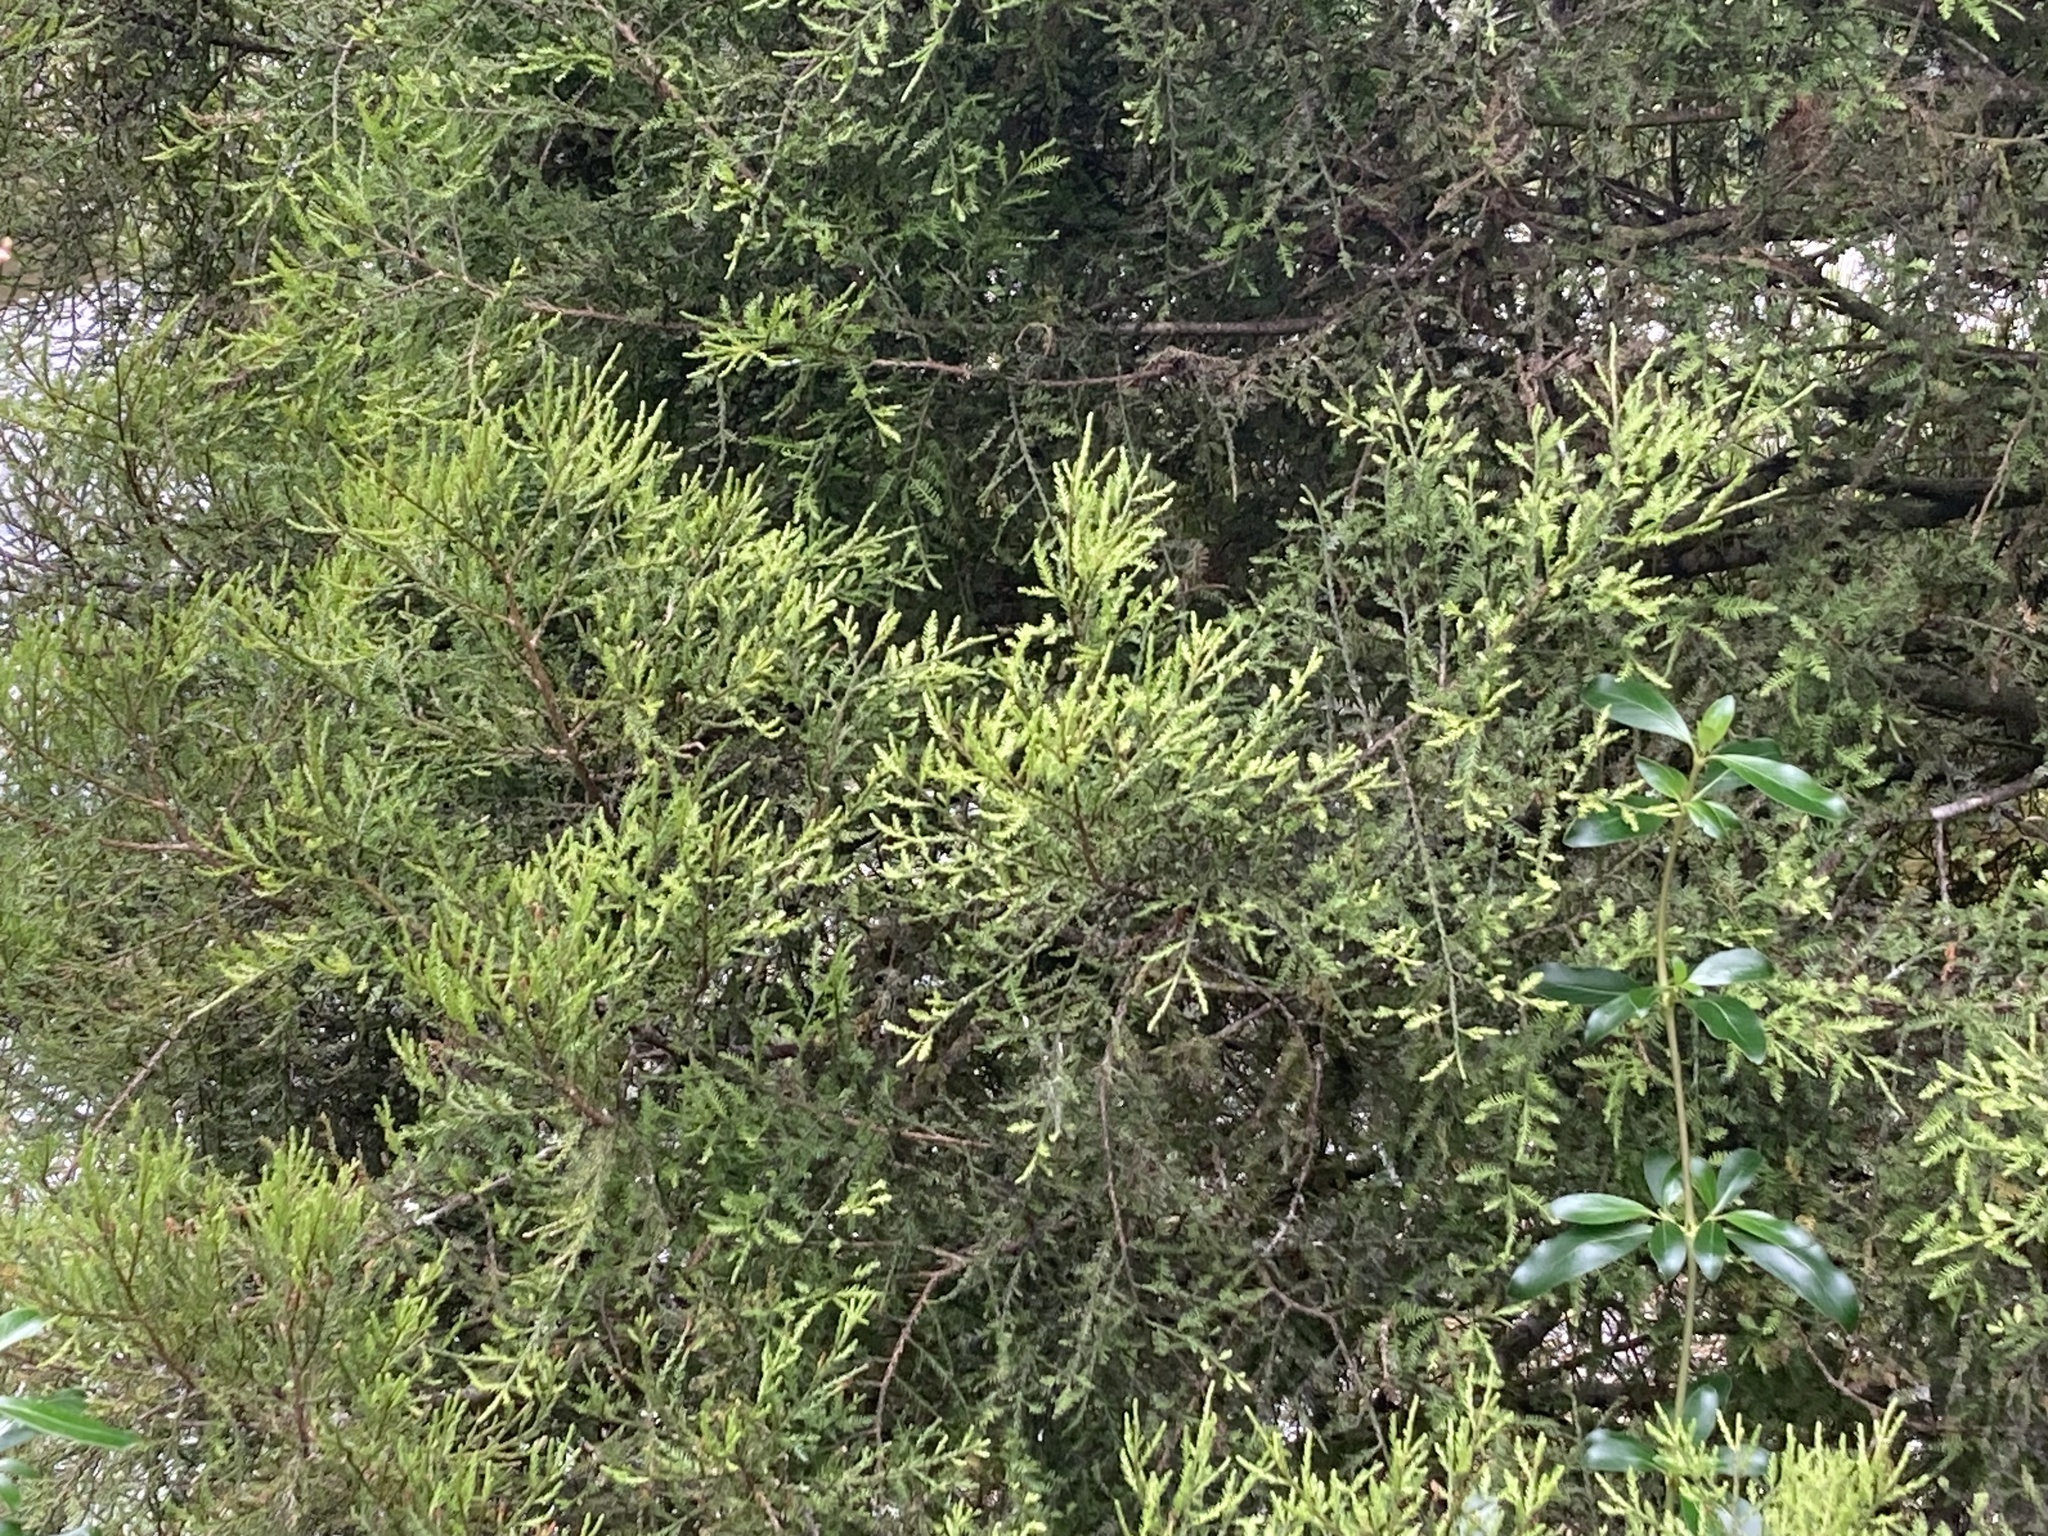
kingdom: Plantae
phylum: Tracheophyta
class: Pinopsida
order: Pinales
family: Podocarpaceae
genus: Dacrycarpus
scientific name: Dacrycarpus dacrydioides
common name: White pine
